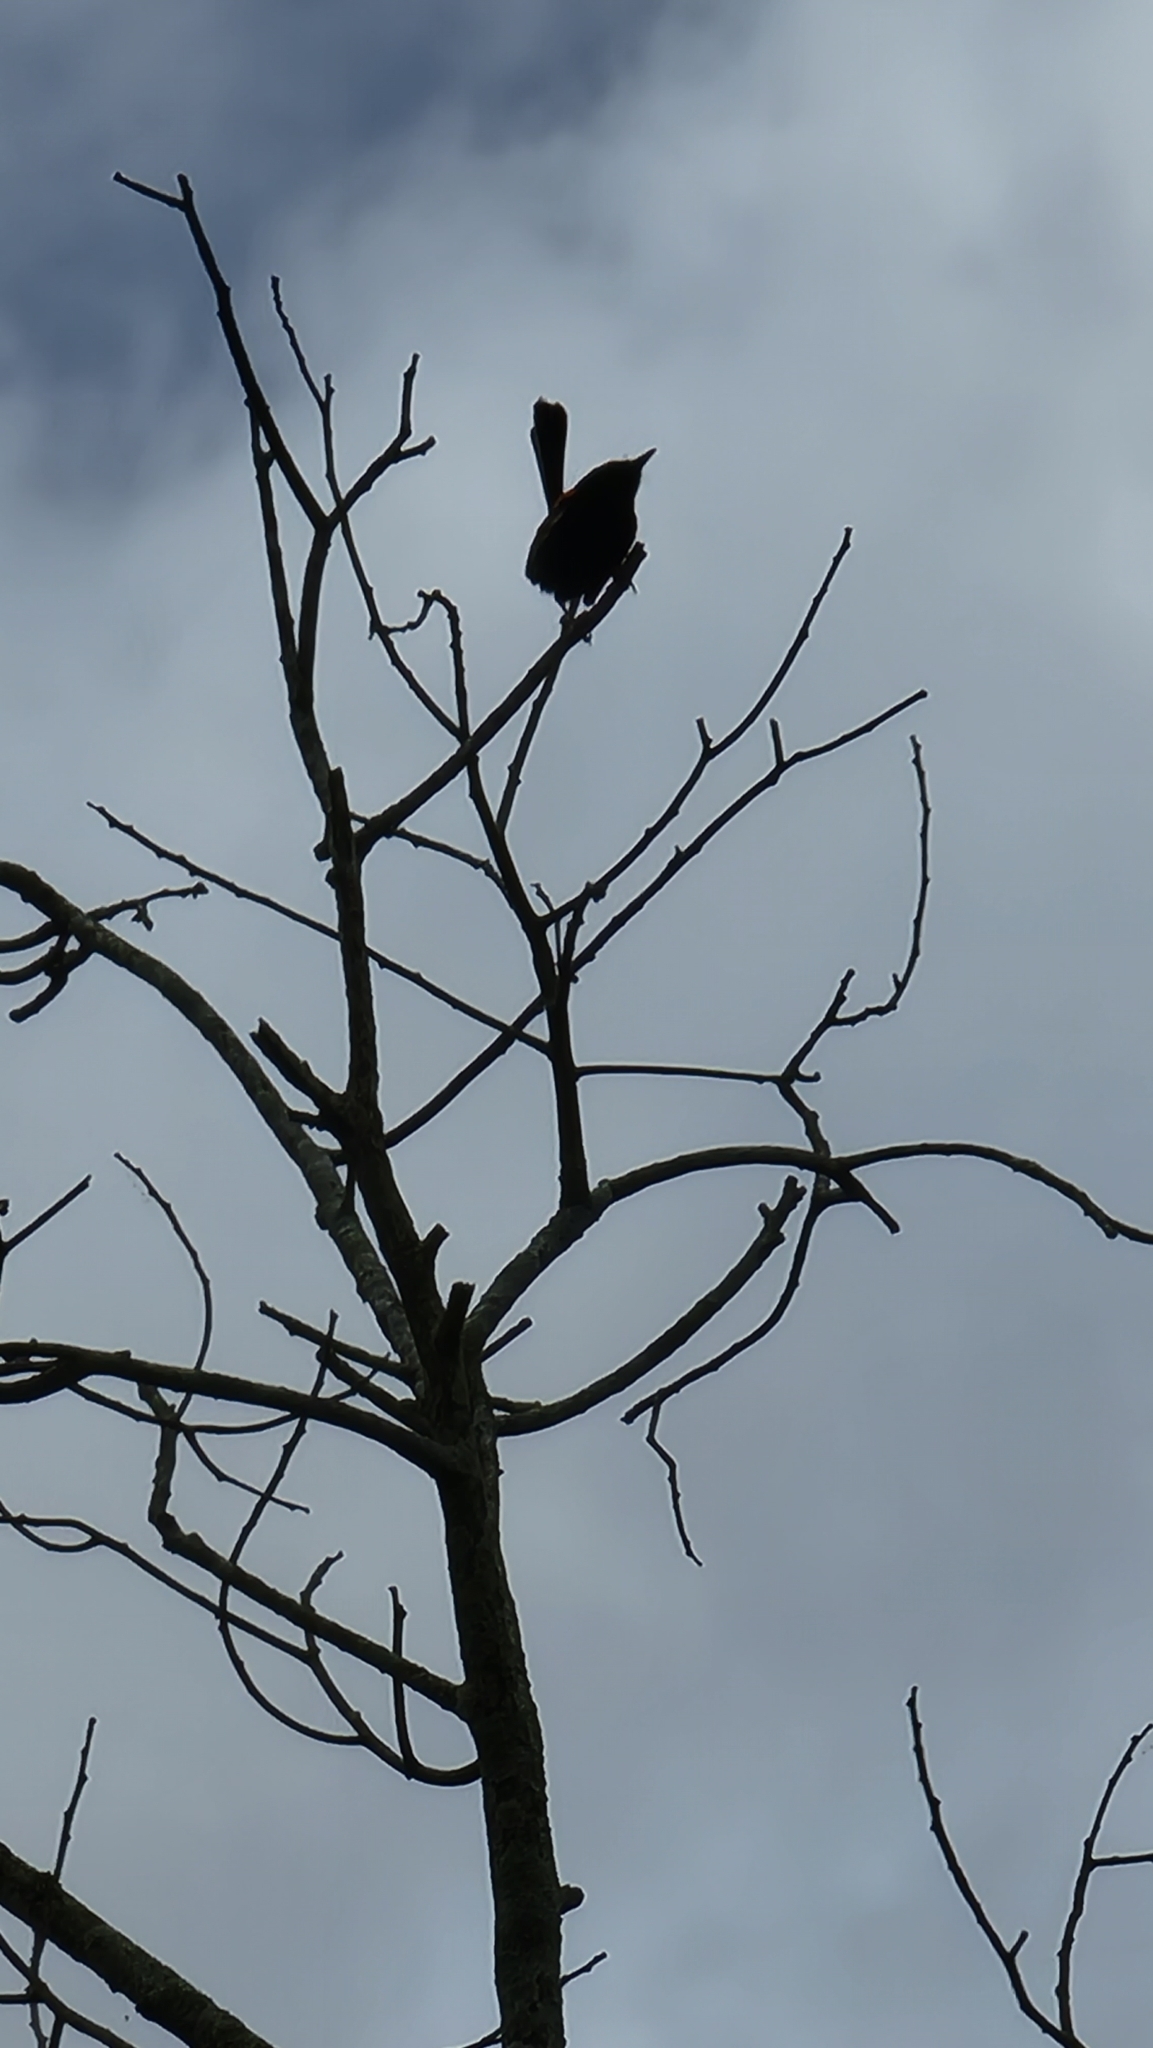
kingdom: Animalia
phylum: Chordata
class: Aves
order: Passeriformes
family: Maluridae
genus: Malurus
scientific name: Malurus melanocephalus
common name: Red-backed fairywren
